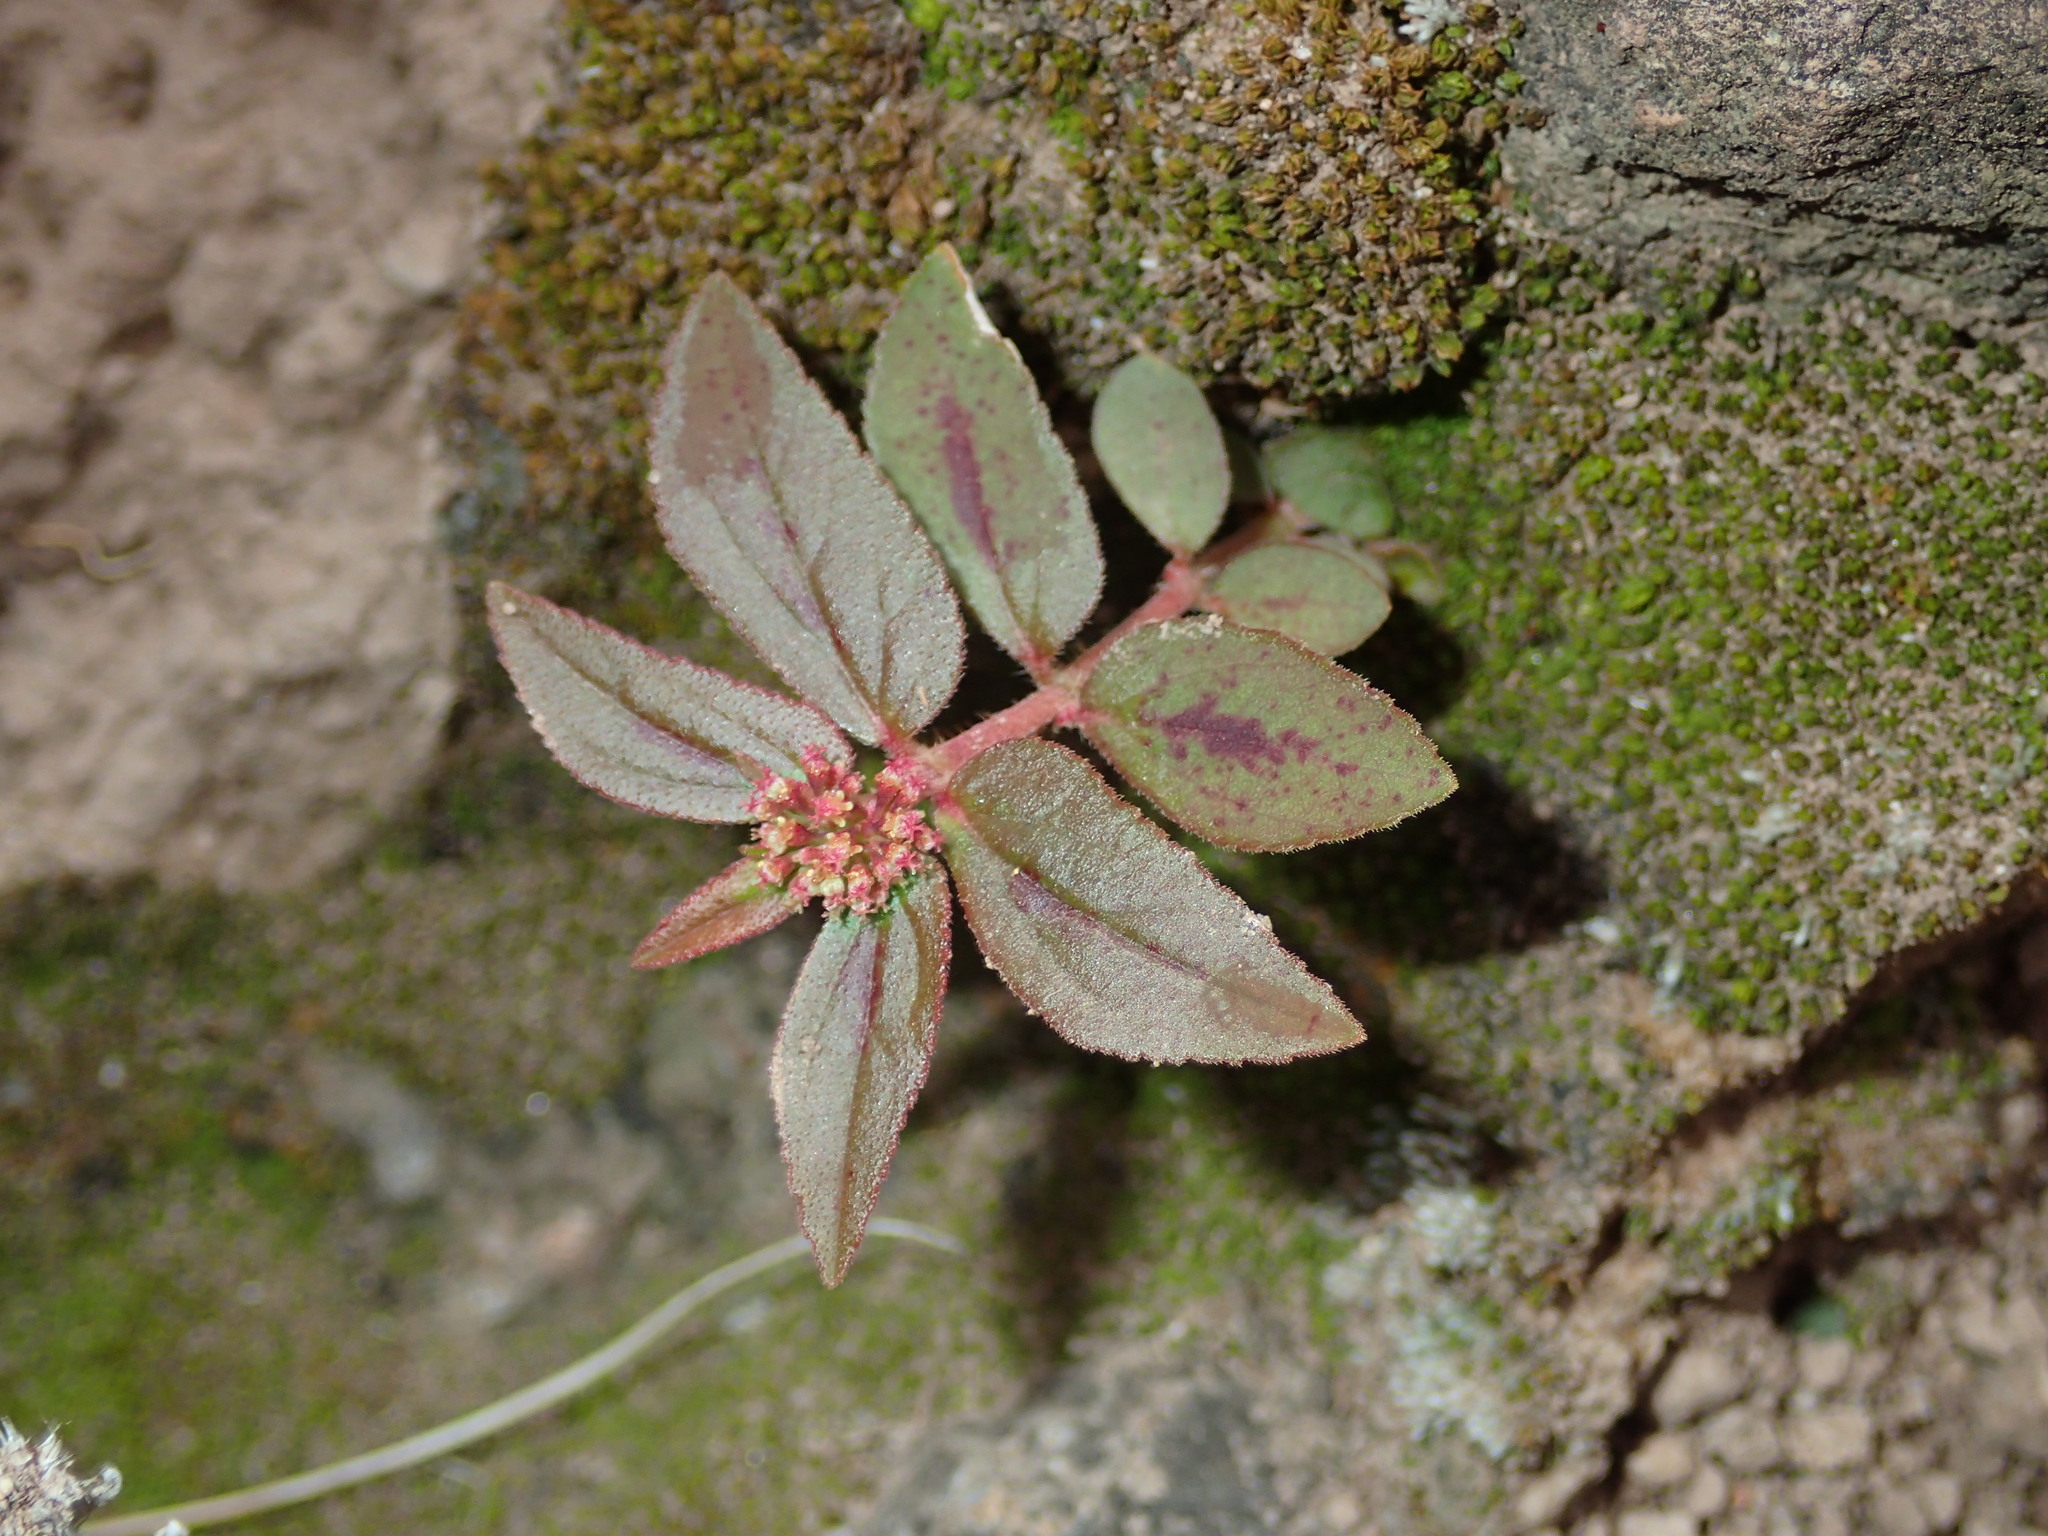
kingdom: Plantae
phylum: Tracheophyta
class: Magnoliopsida
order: Malpighiales
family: Euphorbiaceae
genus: Euphorbia
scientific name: Euphorbia hirta
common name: Pillpod sandmat
